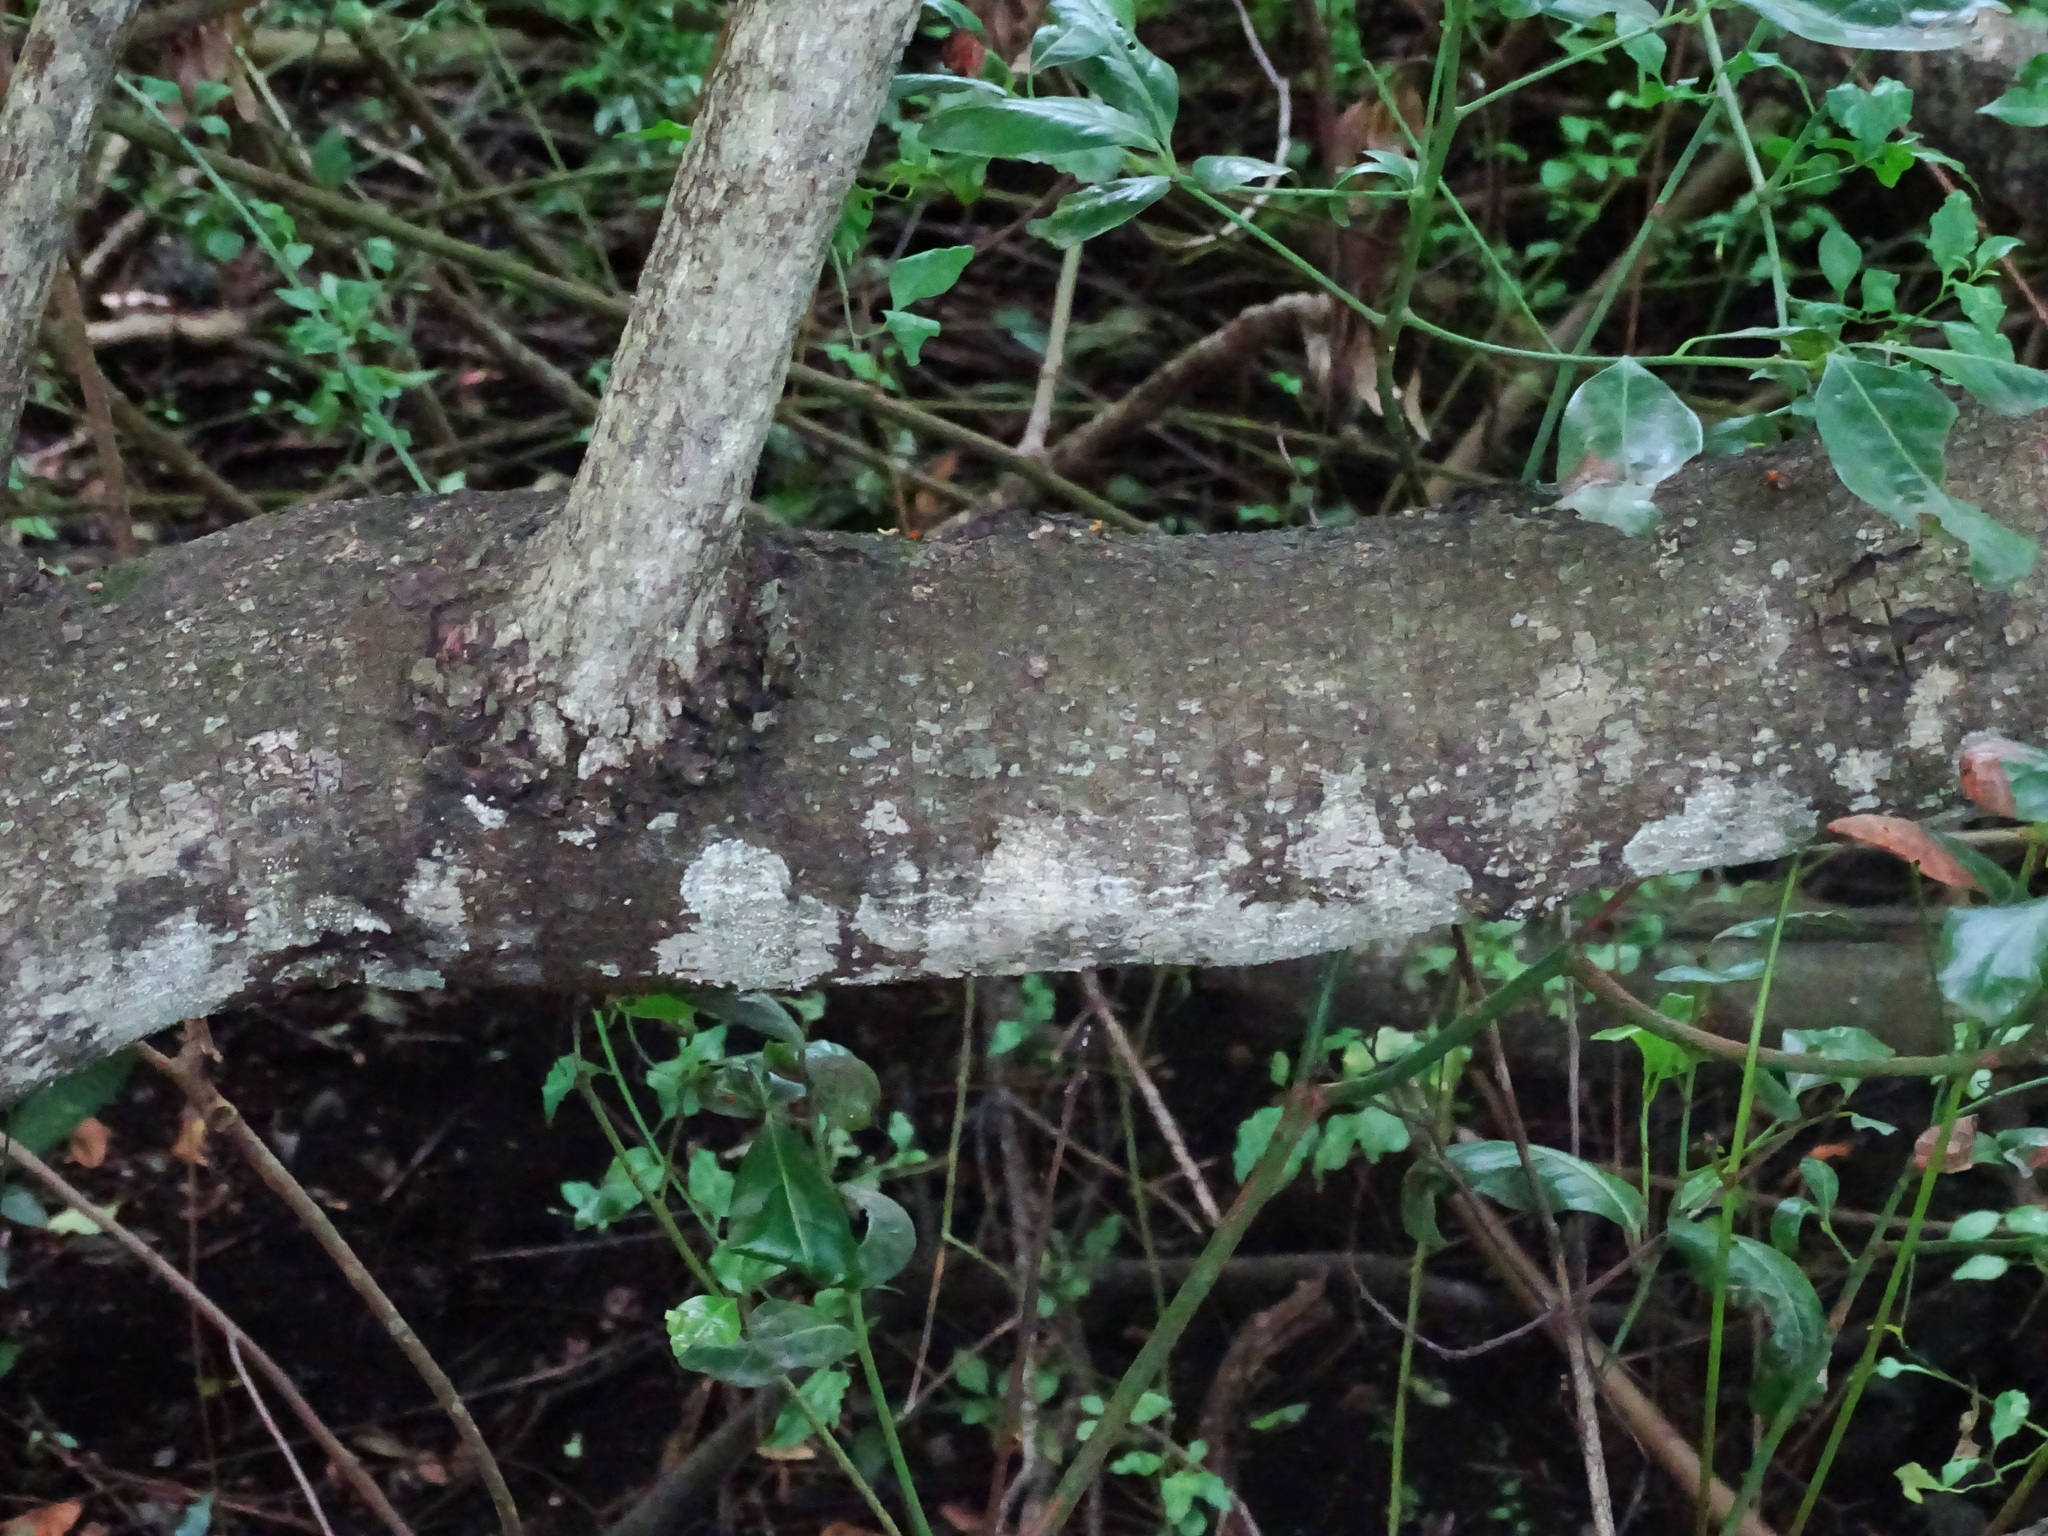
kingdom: Plantae
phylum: Tracheophyta
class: Magnoliopsida
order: Laurales
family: Lauraceae
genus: Apollonias
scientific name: Apollonias barbujana
